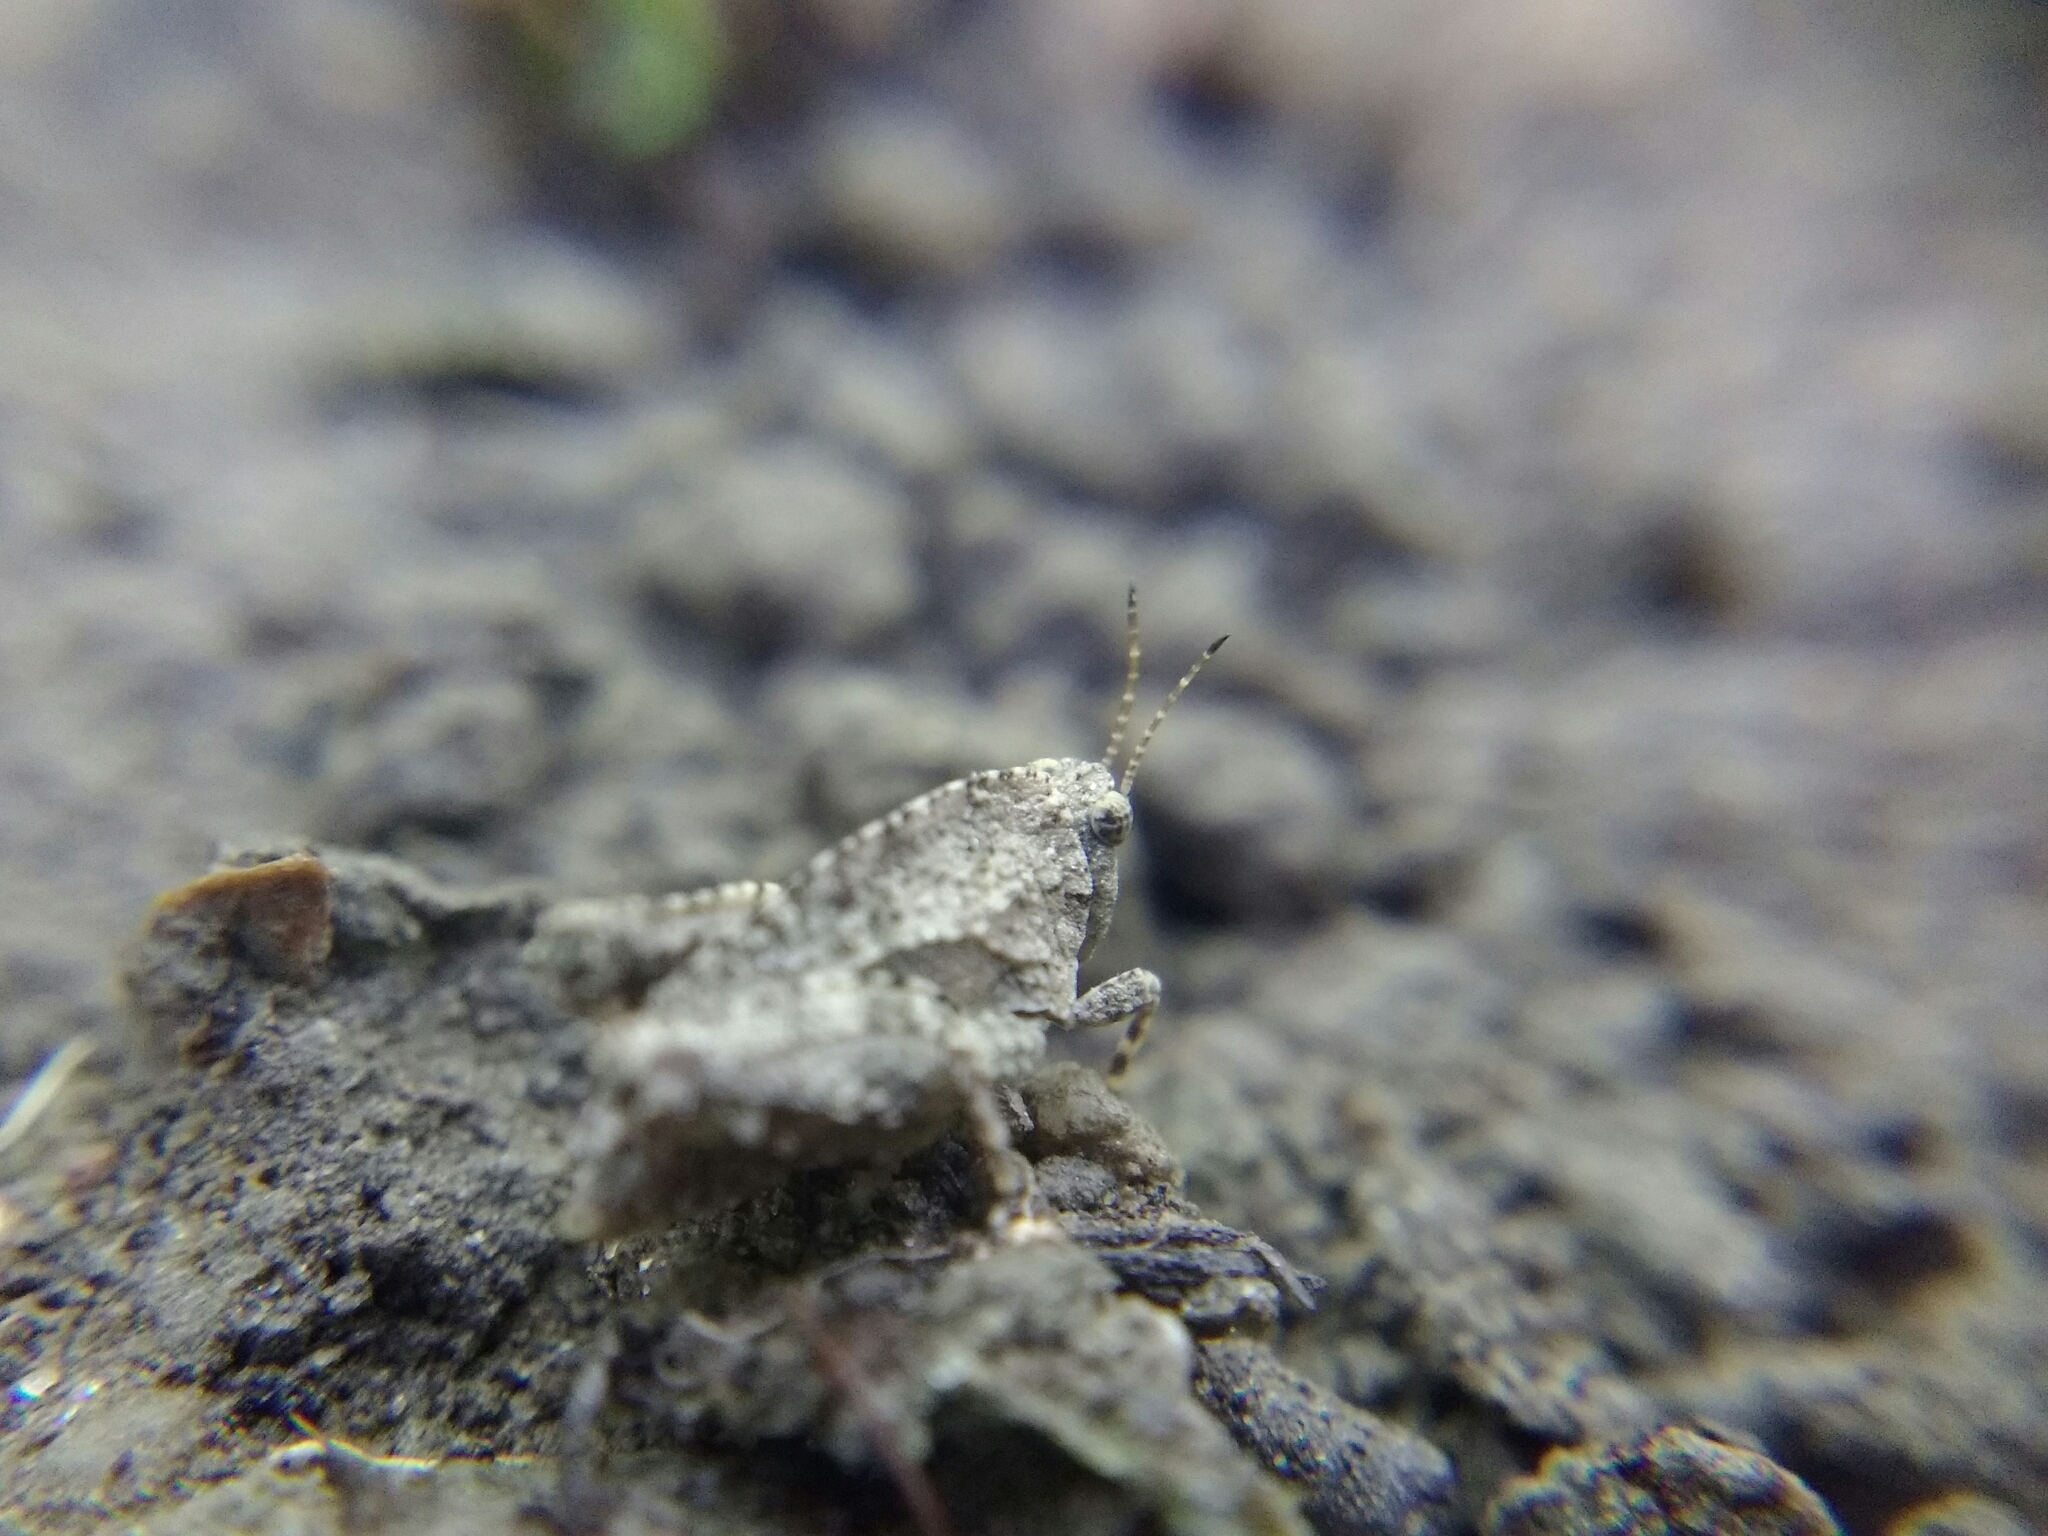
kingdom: Animalia
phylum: Arthropoda
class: Insecta
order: Orthoptera
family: Tetrigidae
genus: Tetrix
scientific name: Tetrix tenuicornis
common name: Long-horned groundhopper
